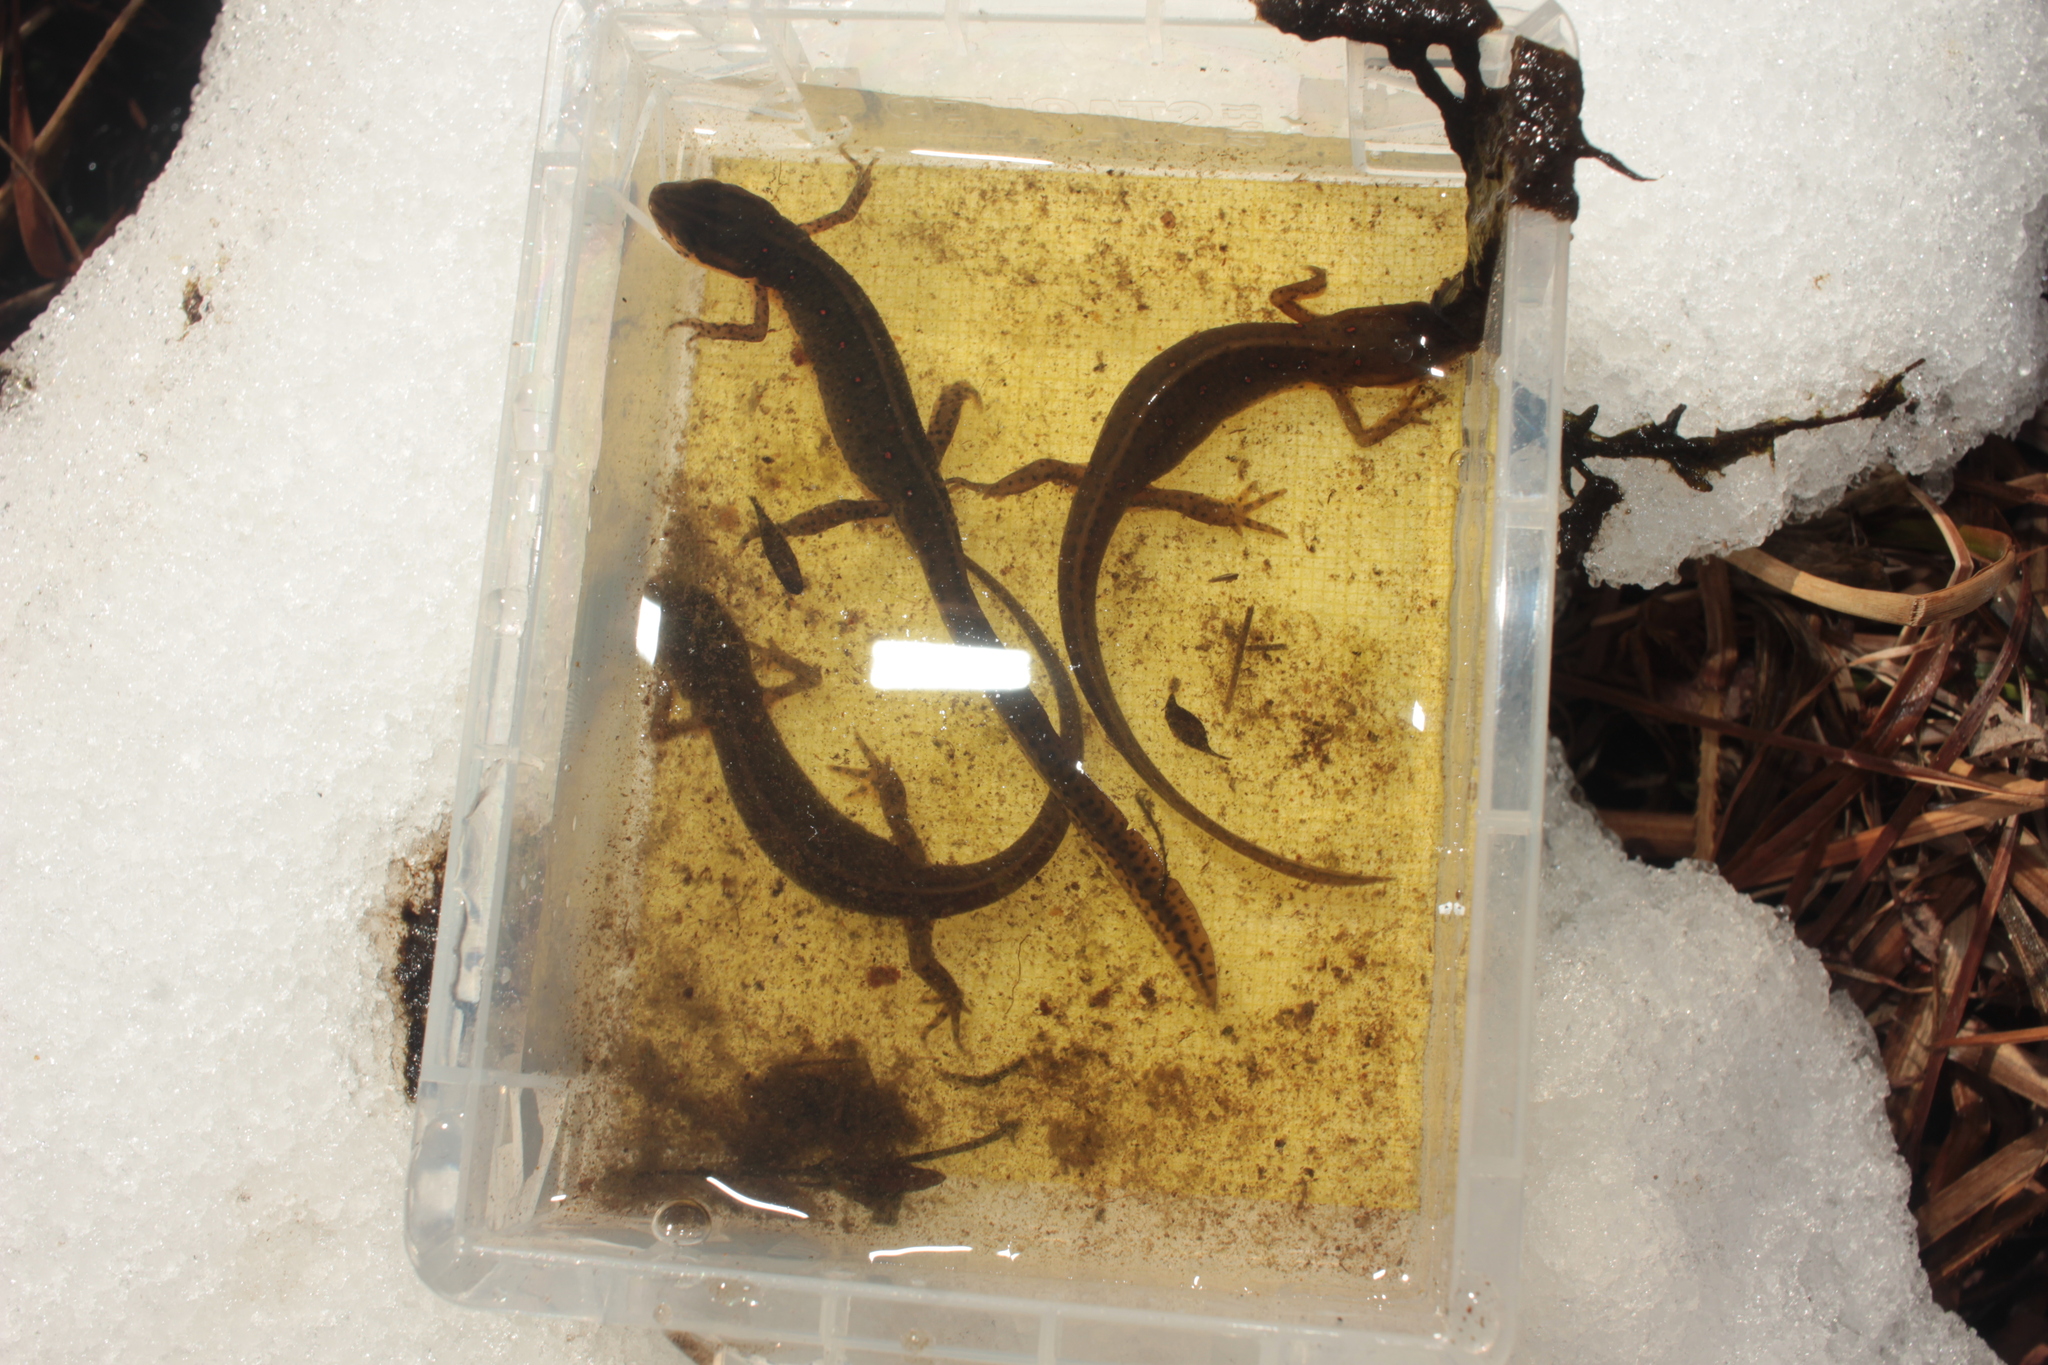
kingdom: Animalia
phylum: Chordata
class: Amphibia
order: Caudata
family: Salamandridae
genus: Notophthalmus
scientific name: Notophthalmus viridescens
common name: Eastern newt
